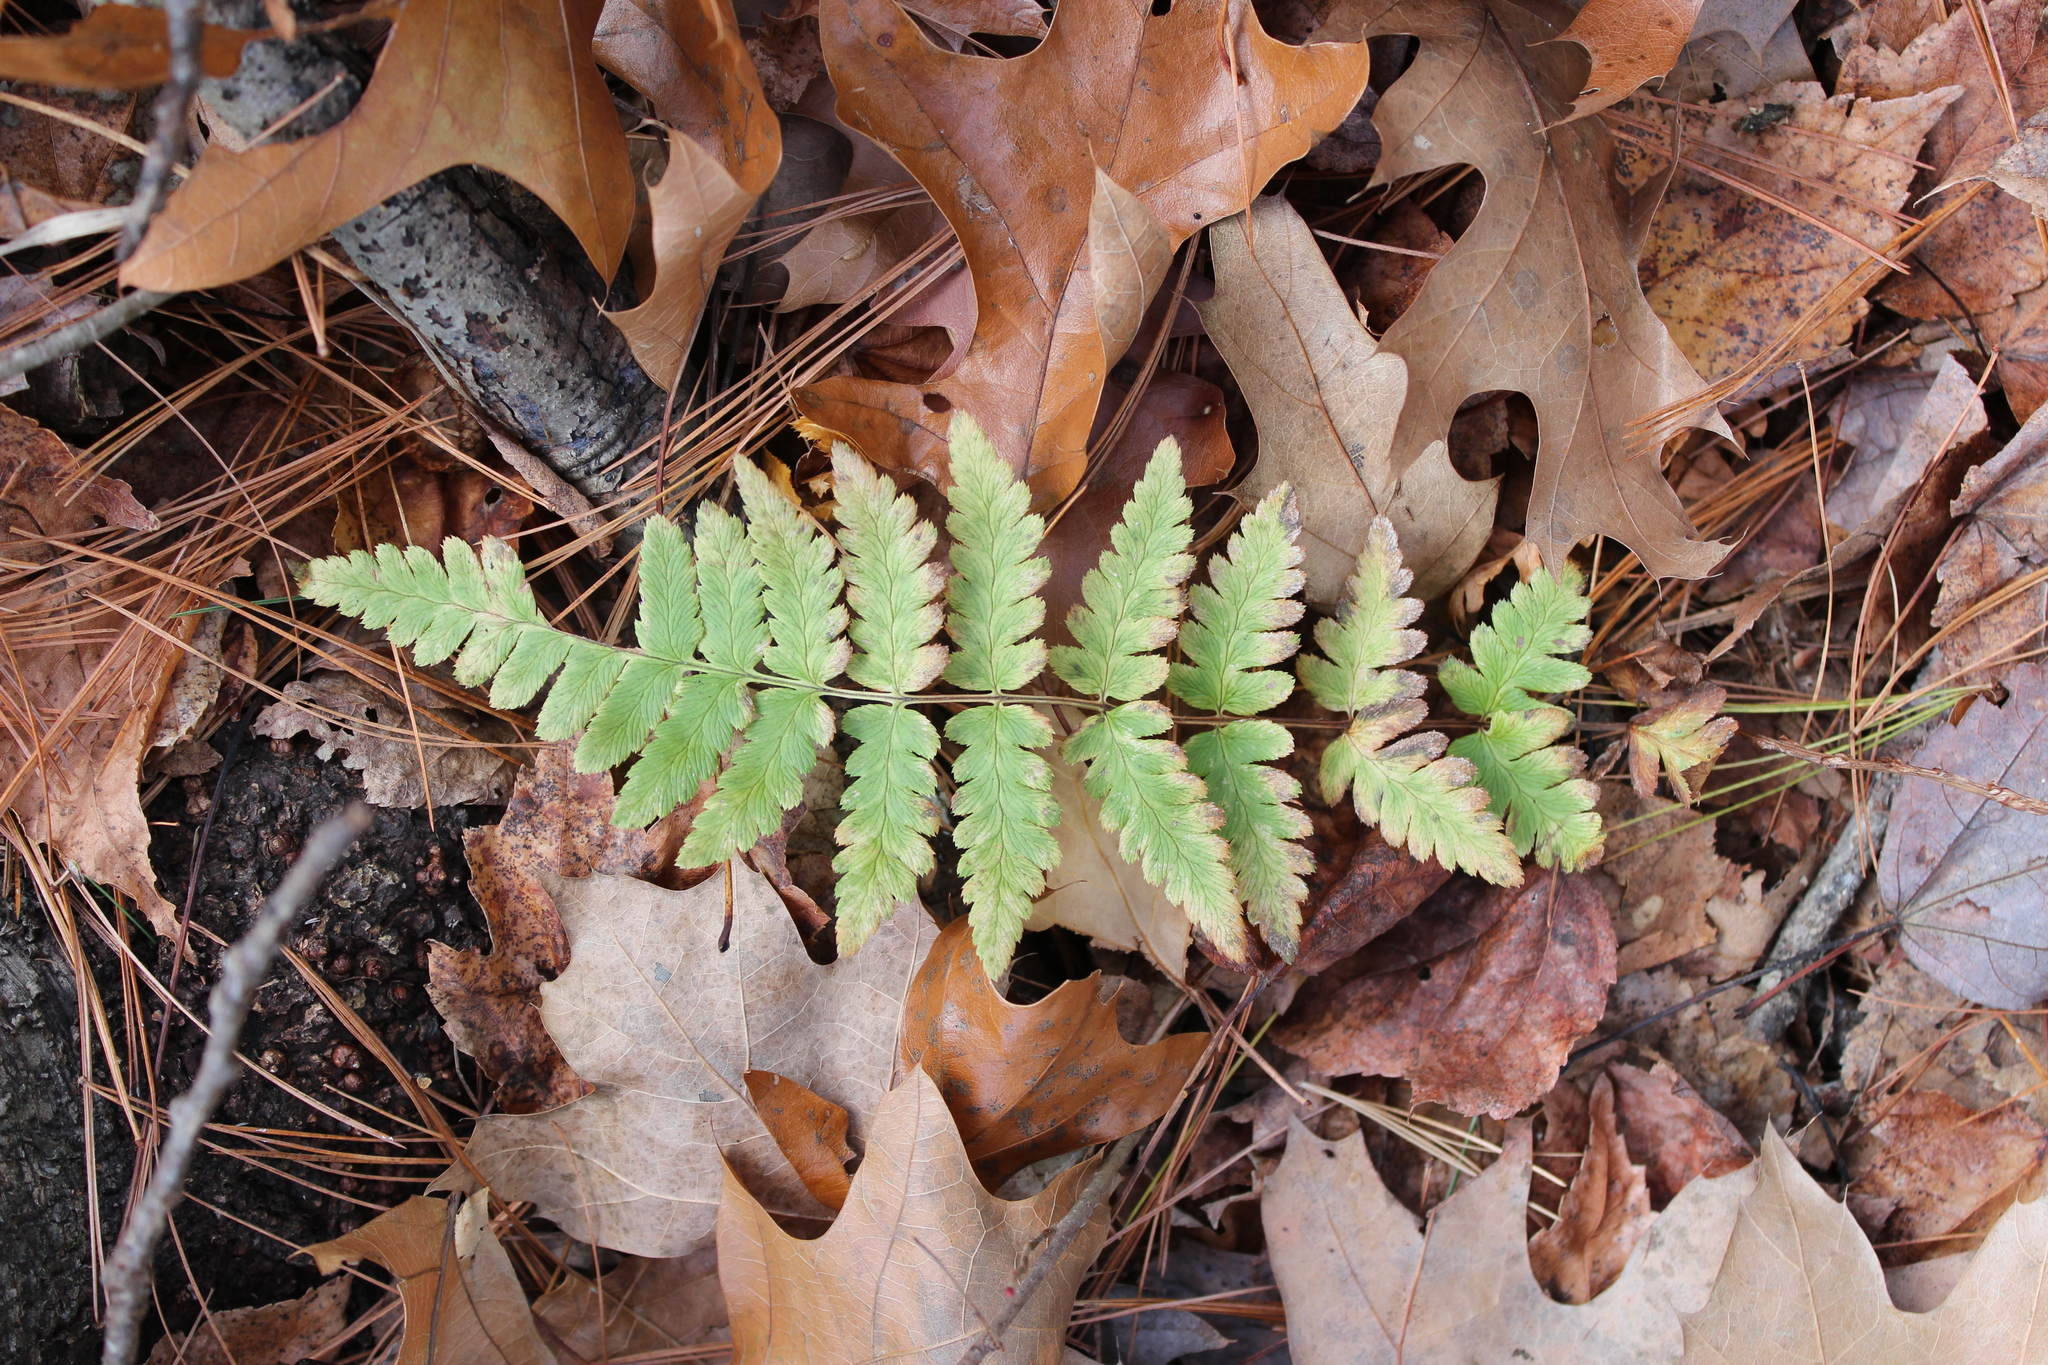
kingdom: Plantae
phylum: Tracheophyta
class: Polypodiopsida
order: Polypodiales
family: Dryopteridaceae
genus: Dryopteris
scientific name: Dryopteris cristata
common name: Crested wood fern
